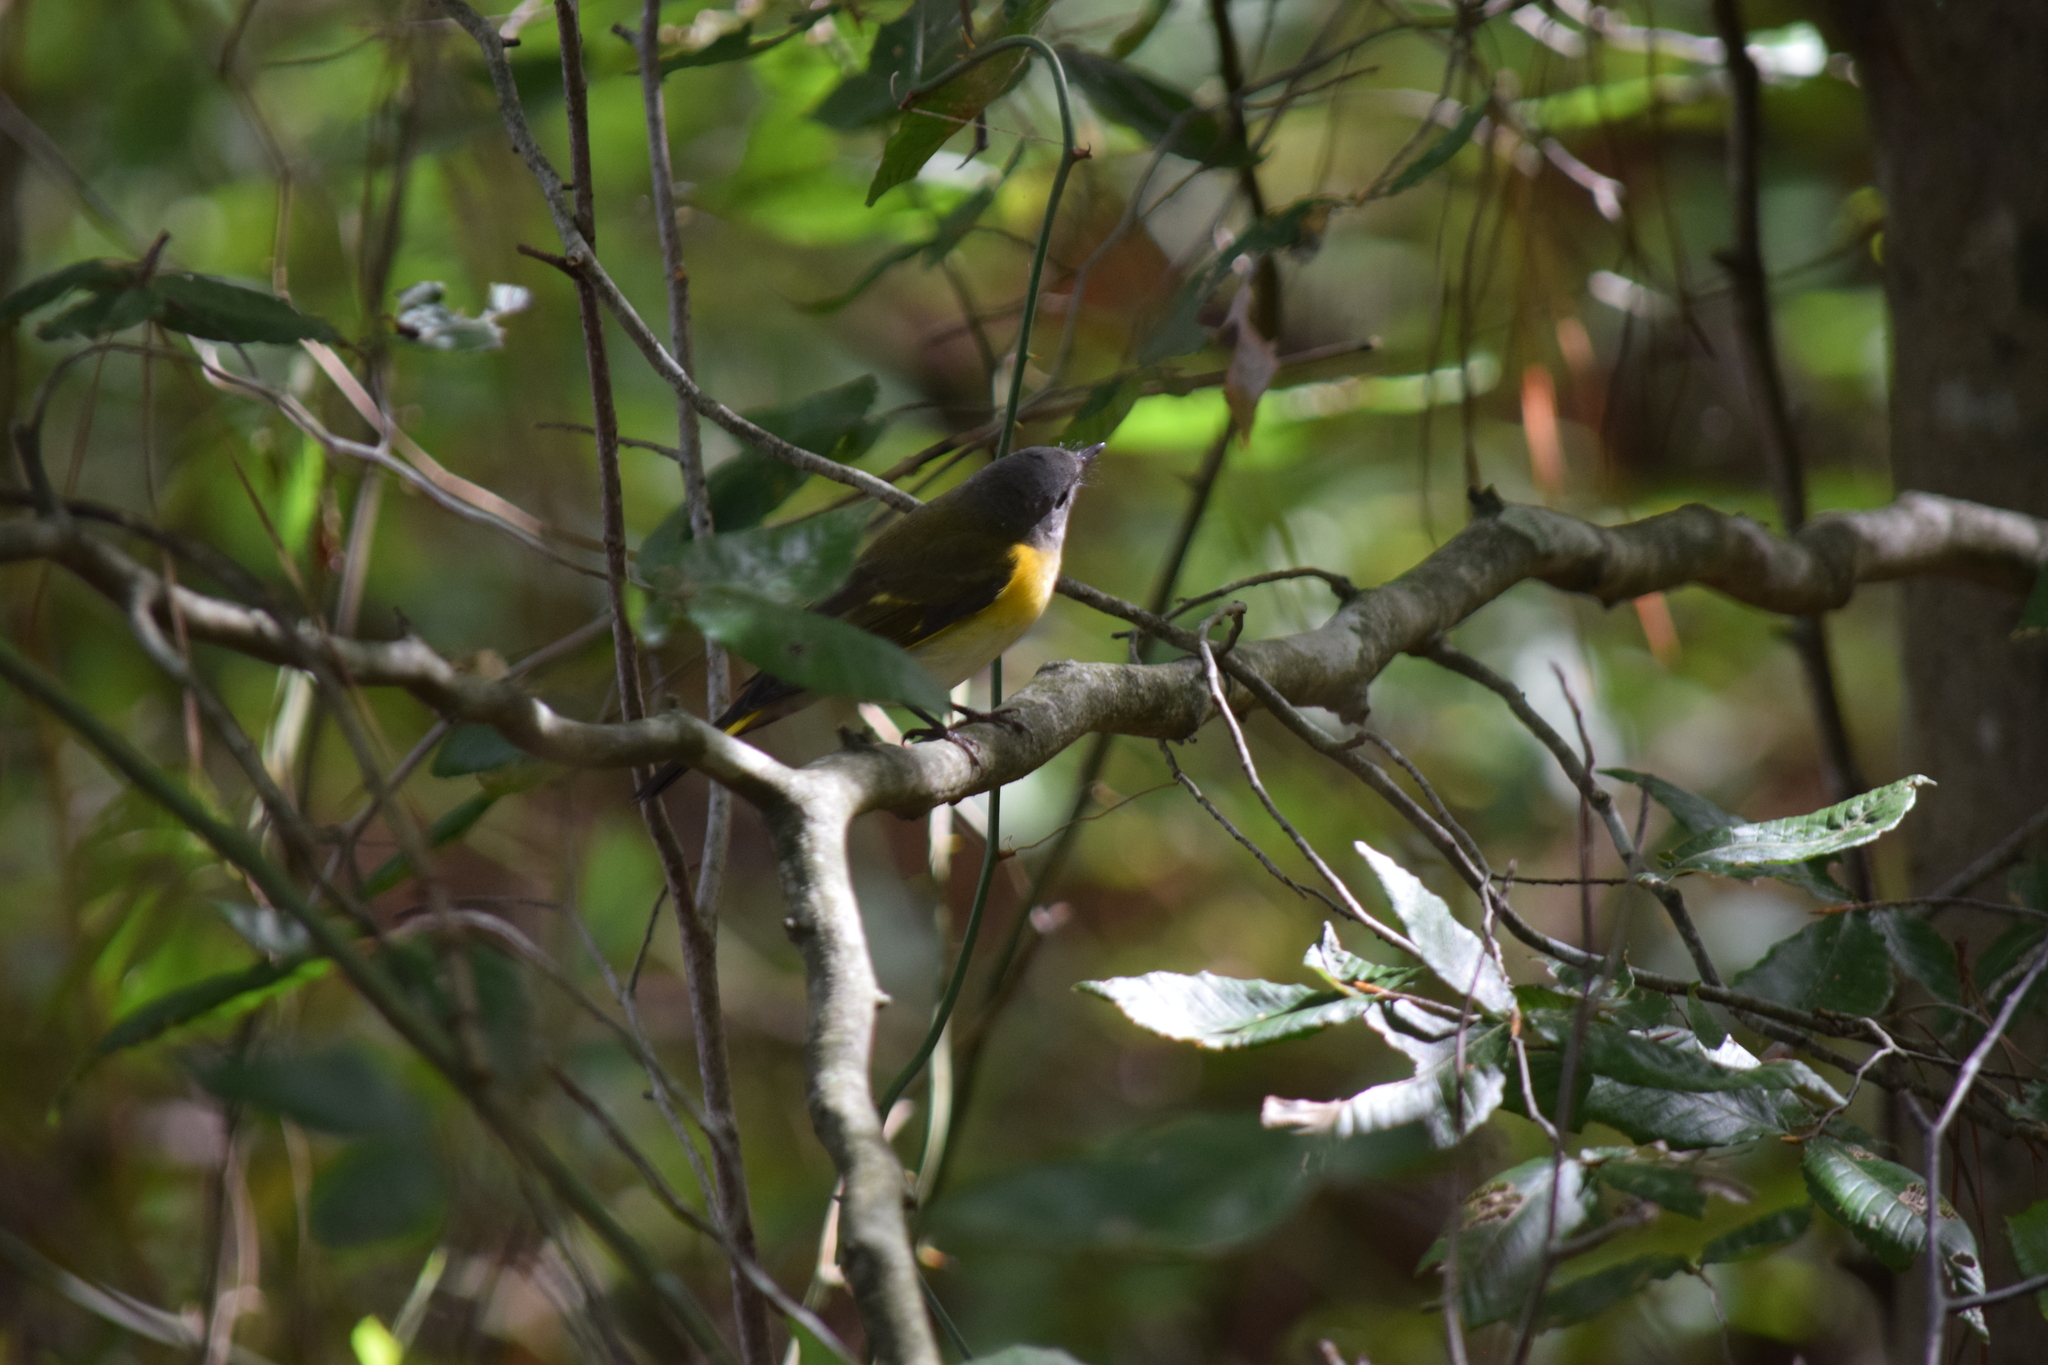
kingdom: Animalia
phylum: Chordata
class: Aves
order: Passeriformes
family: Parulidae
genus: Setophaga
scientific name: Setophaga ruticilla
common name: American redstart
